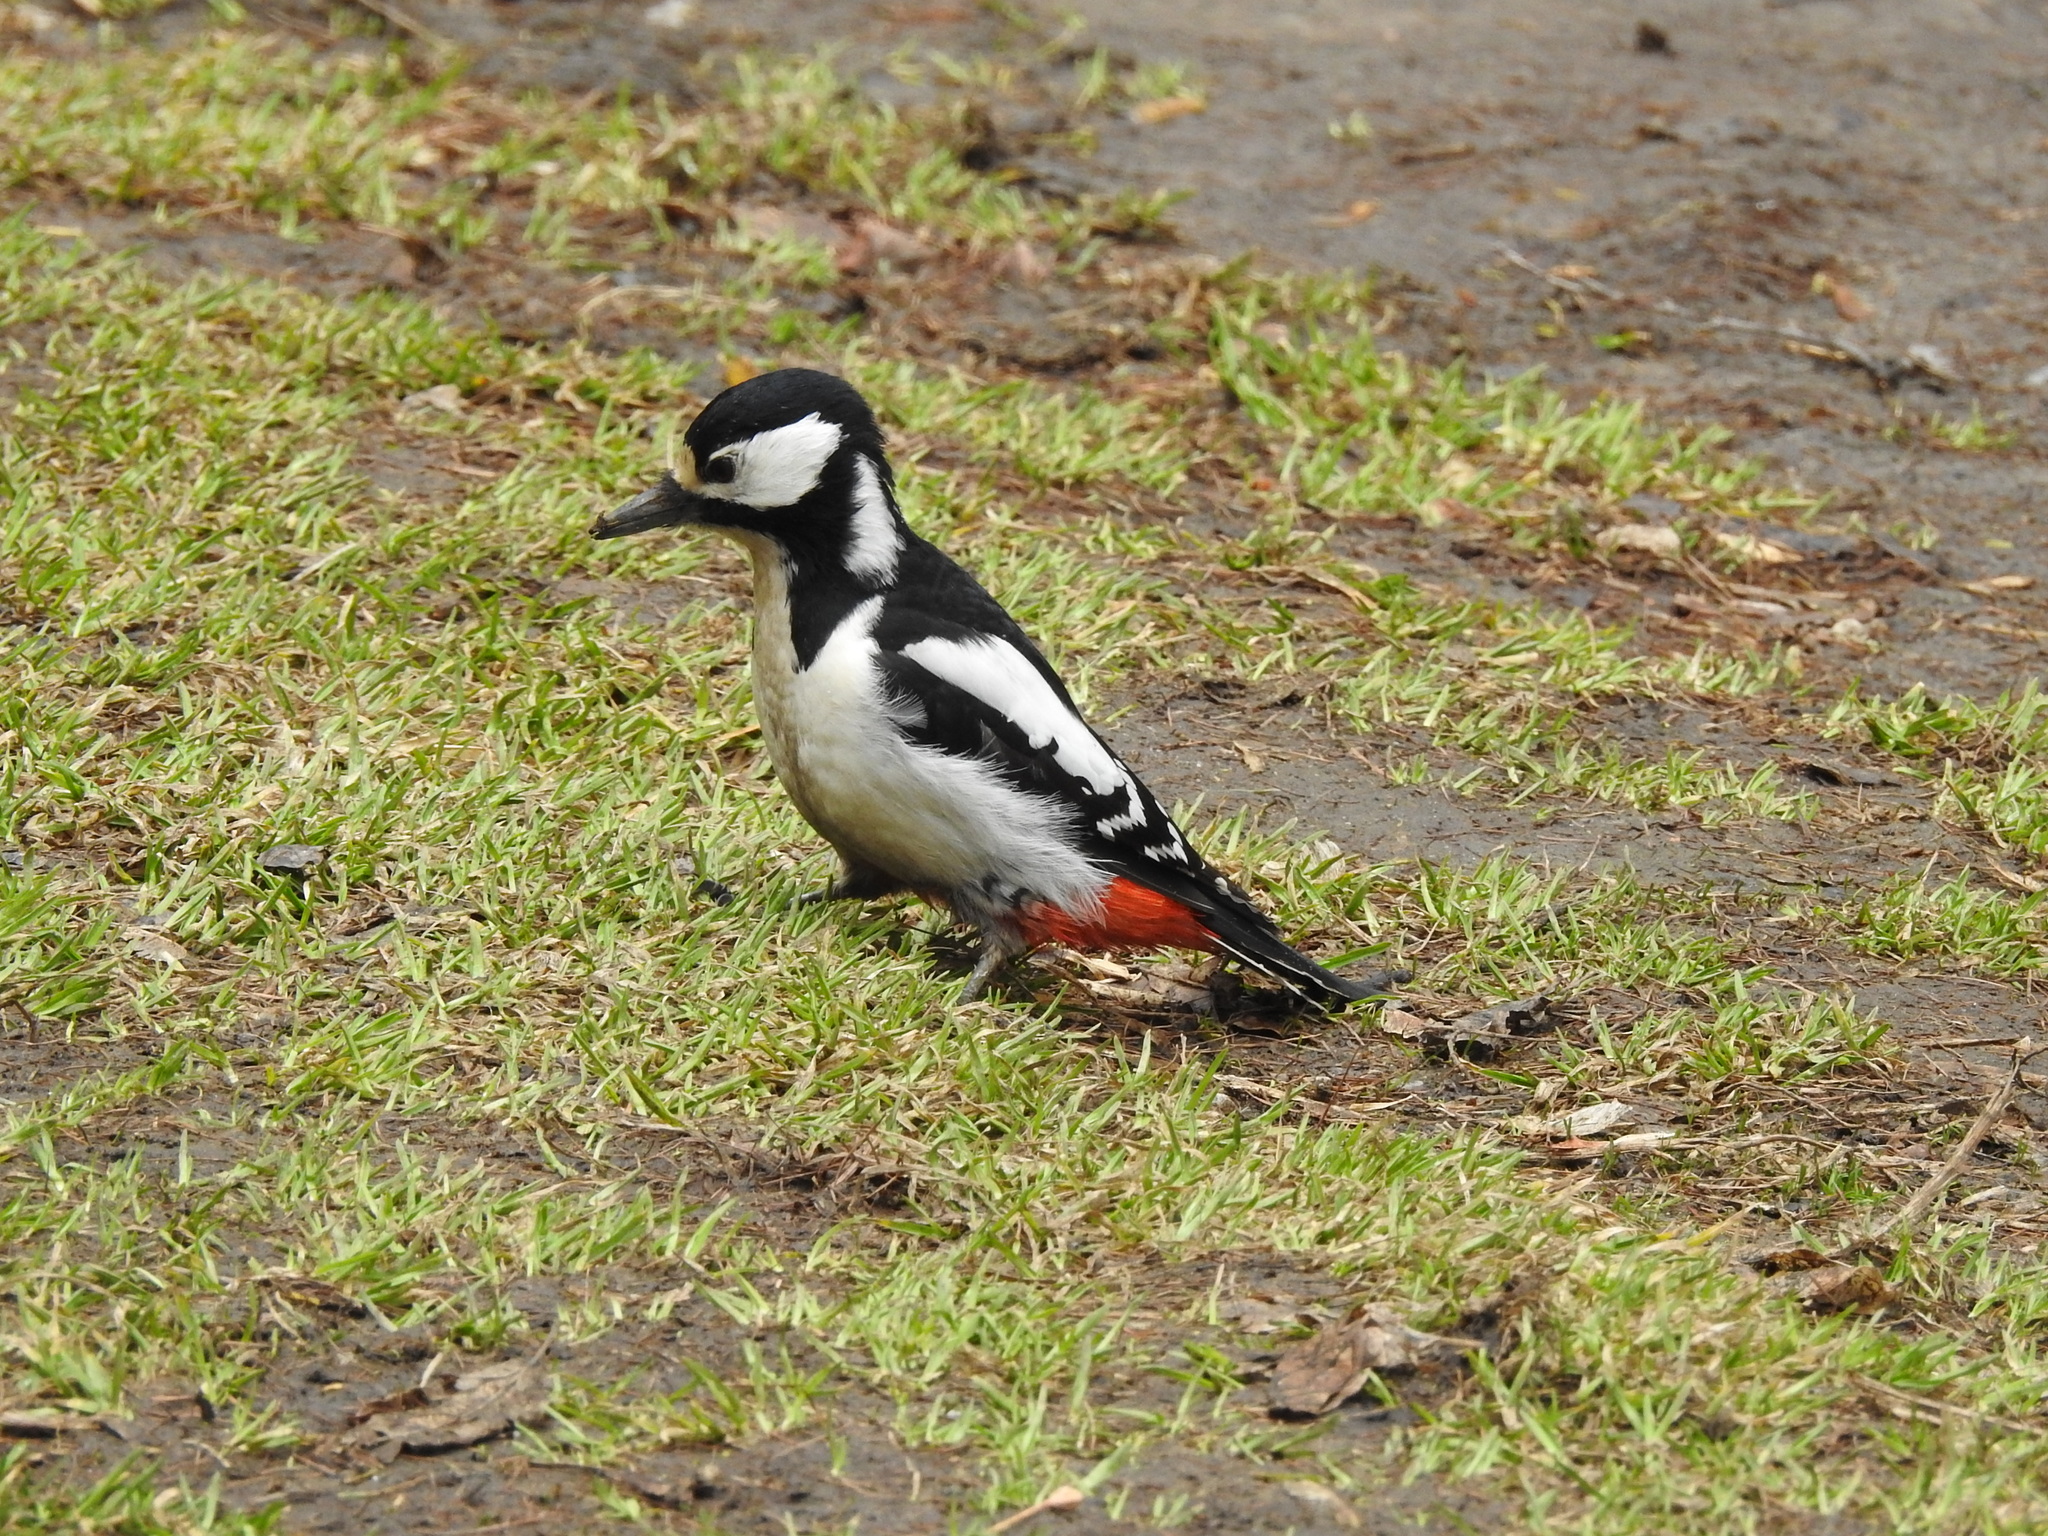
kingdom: Animalia
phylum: Chordata
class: Aves
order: Piciformes
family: Picidae
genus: Dendrocopos
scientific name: Dendrocopos major
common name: Great spotted woodpecker
